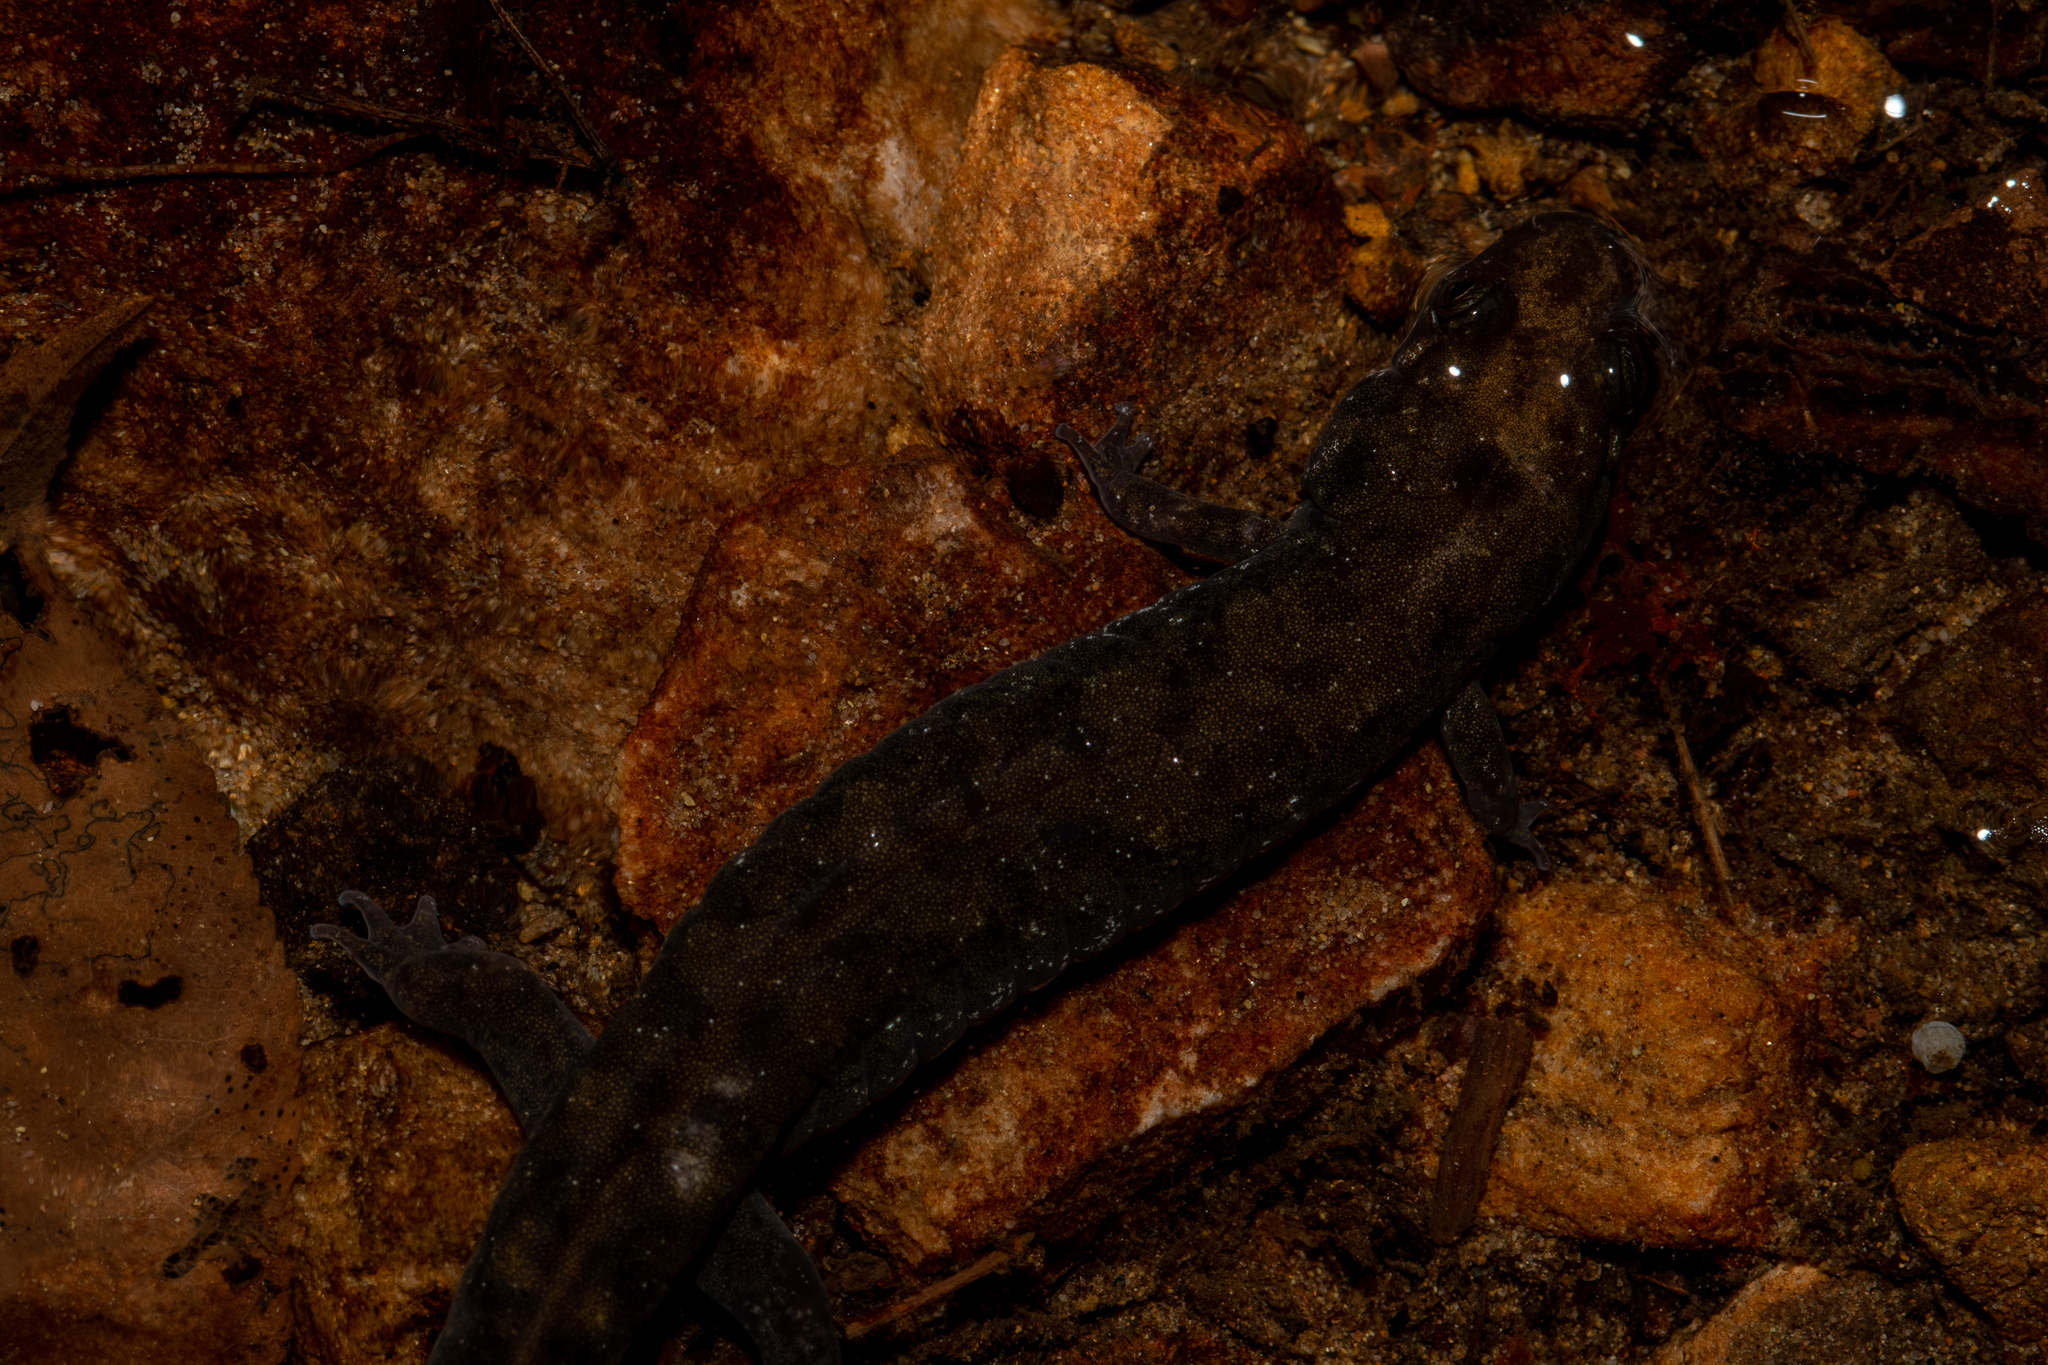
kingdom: Animalia
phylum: Chordata
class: Amphibia
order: Caudata
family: Plethodontidae
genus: Desmognathus
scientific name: Desmognathus monticola
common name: Seal salamander
